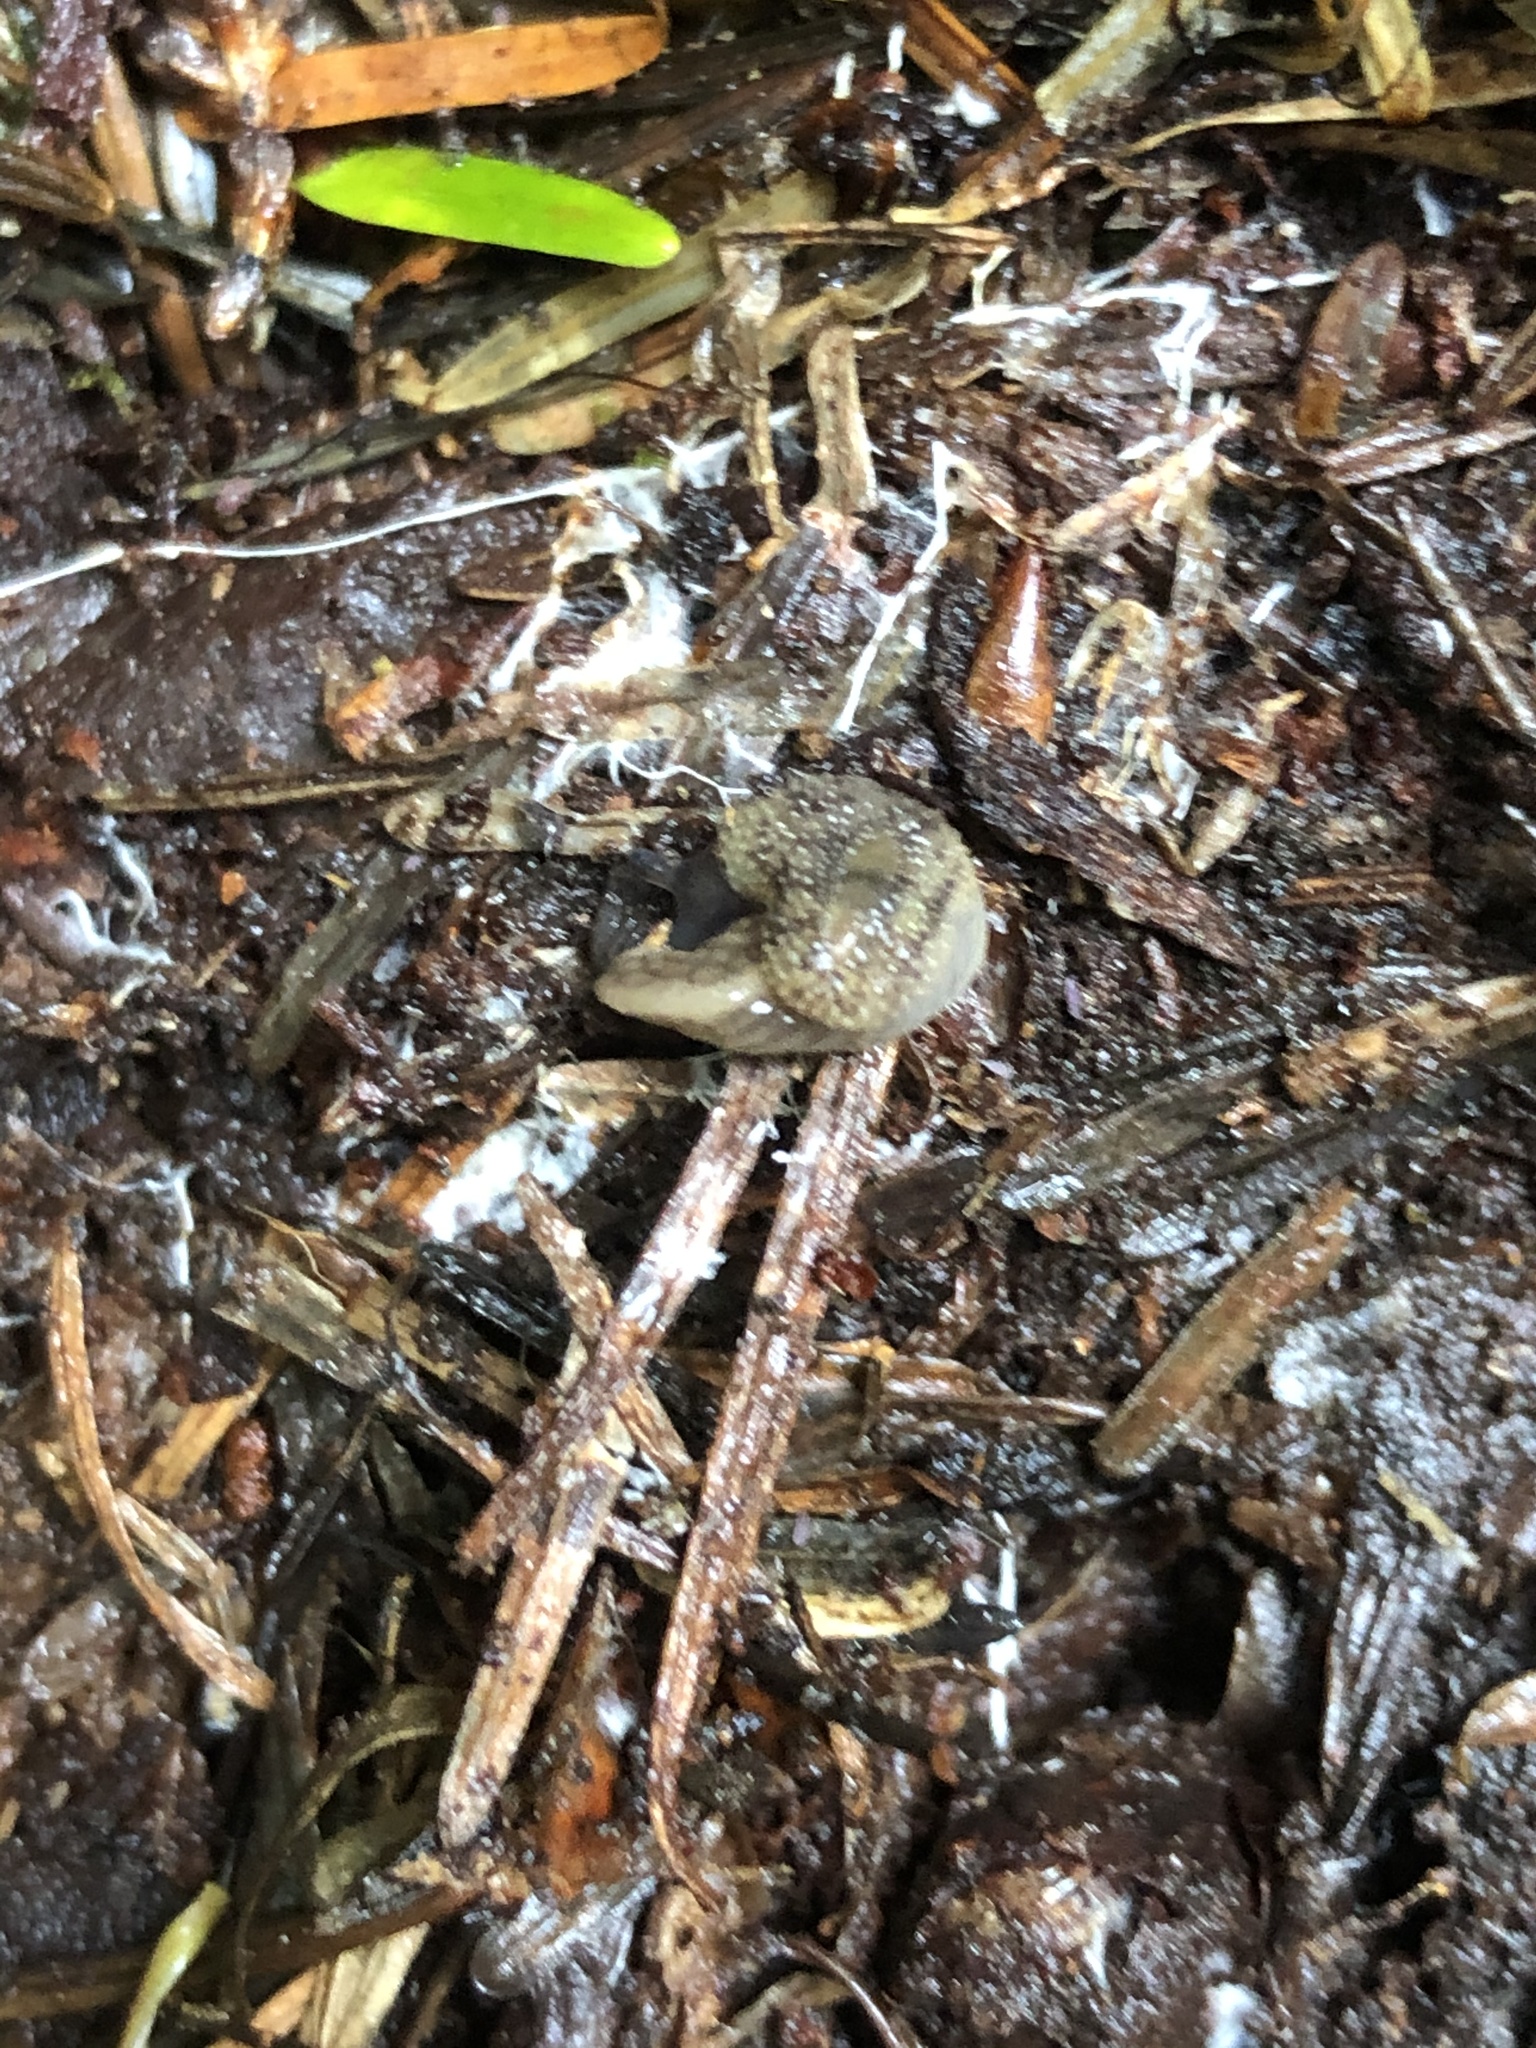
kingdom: Animalia
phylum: Mollusca
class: Gastropoda
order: Stylommatophora
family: Binneyidae
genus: Hemphillia
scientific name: Hemphillia glandulosa
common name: Warty jumping slug
